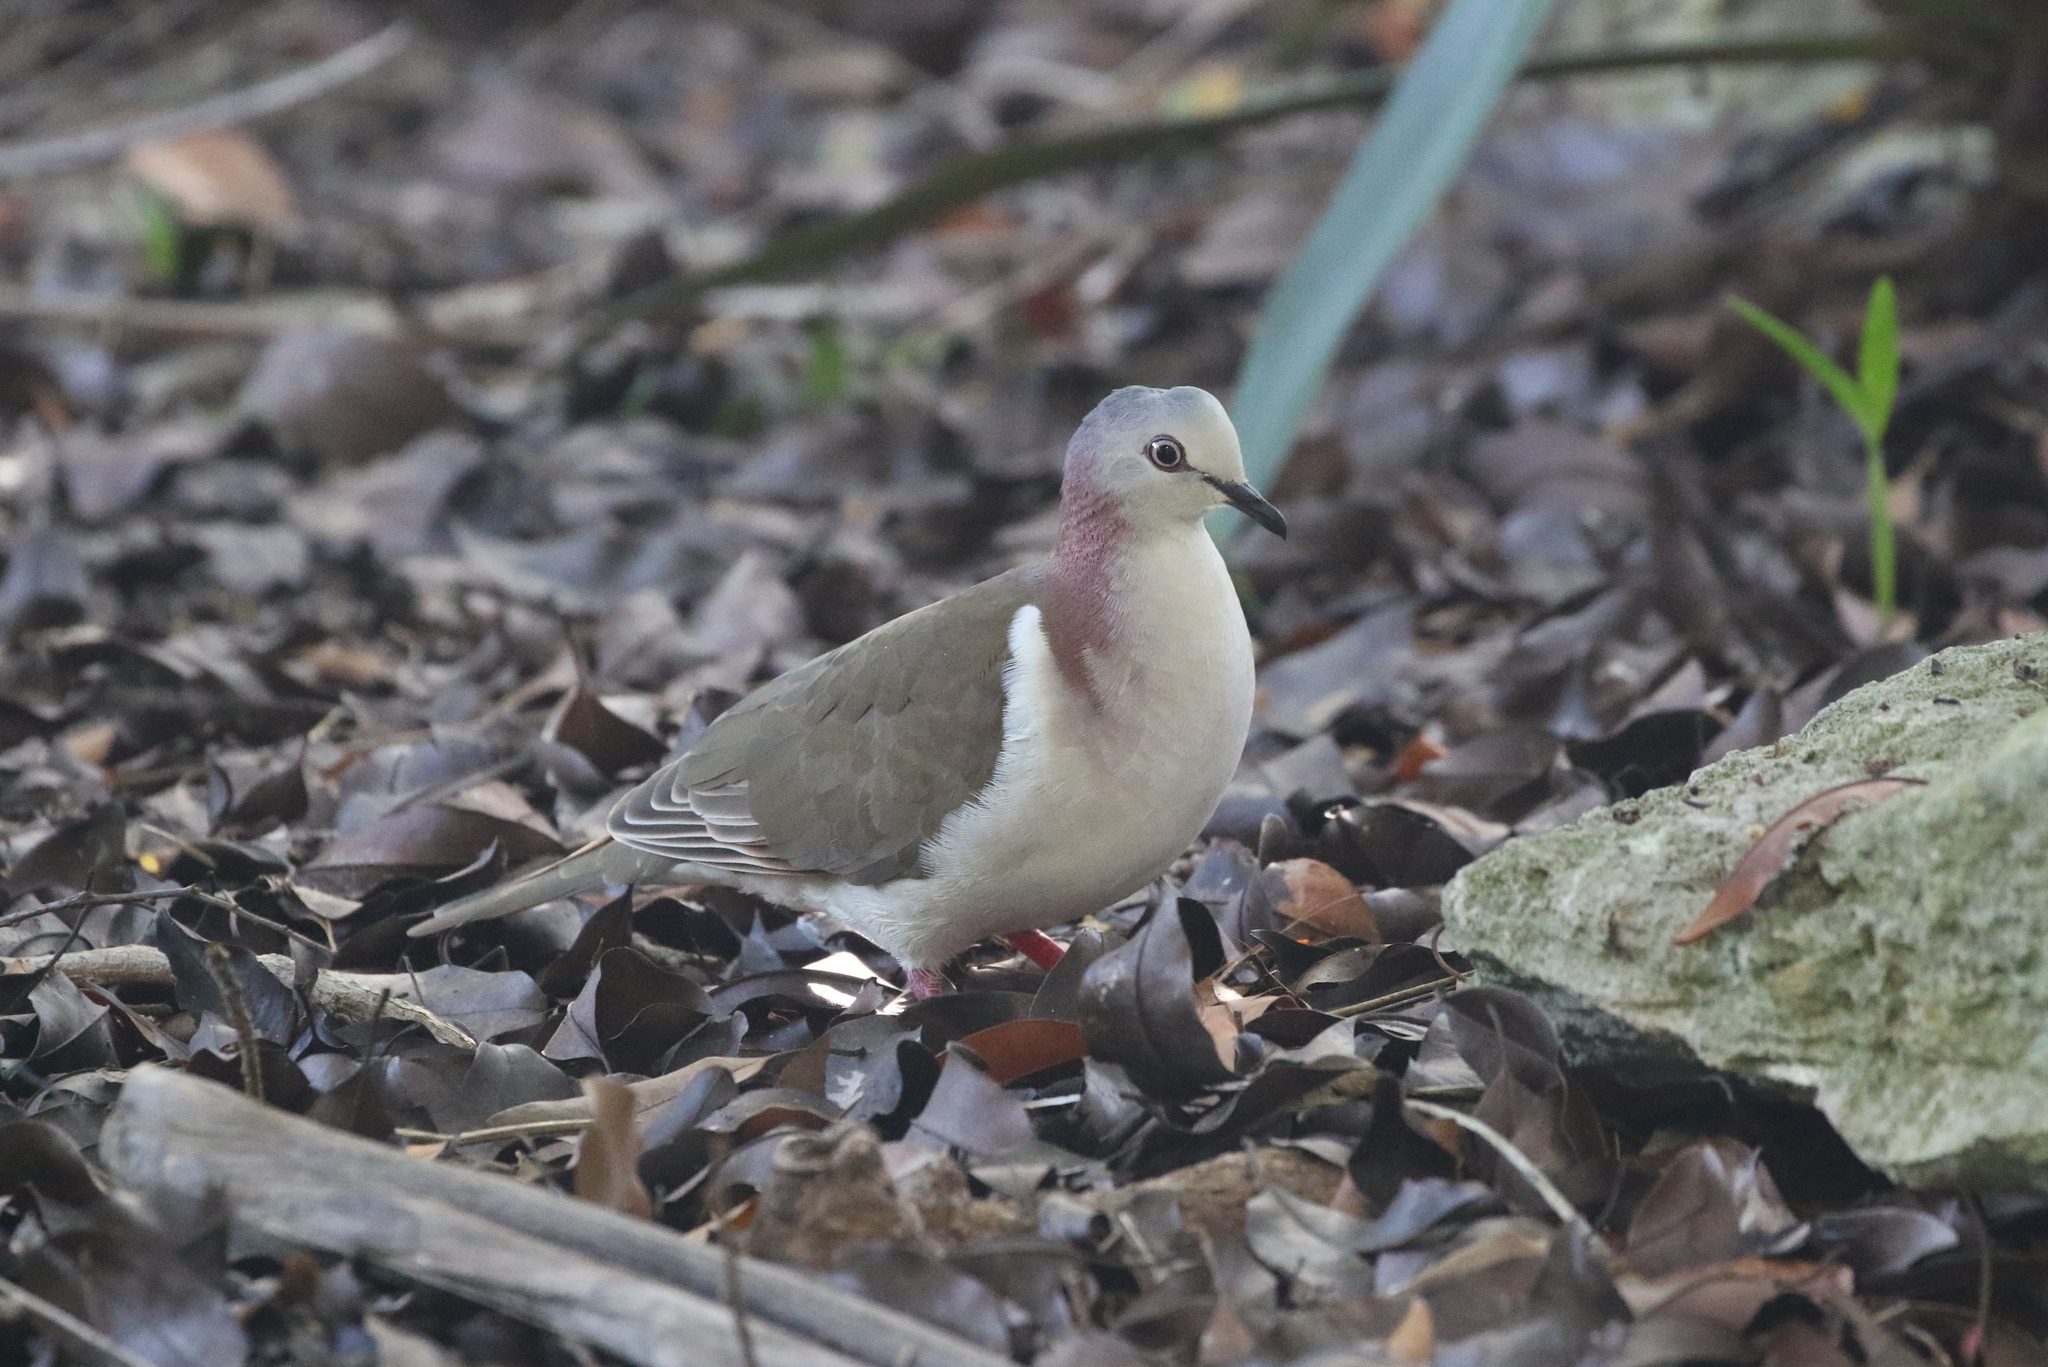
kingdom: Animalia
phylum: Chordata
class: Aves
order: Columbiformes
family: Columbidae
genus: Leptotila
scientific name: Leptotila jamaicensis
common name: Caribbean dove
